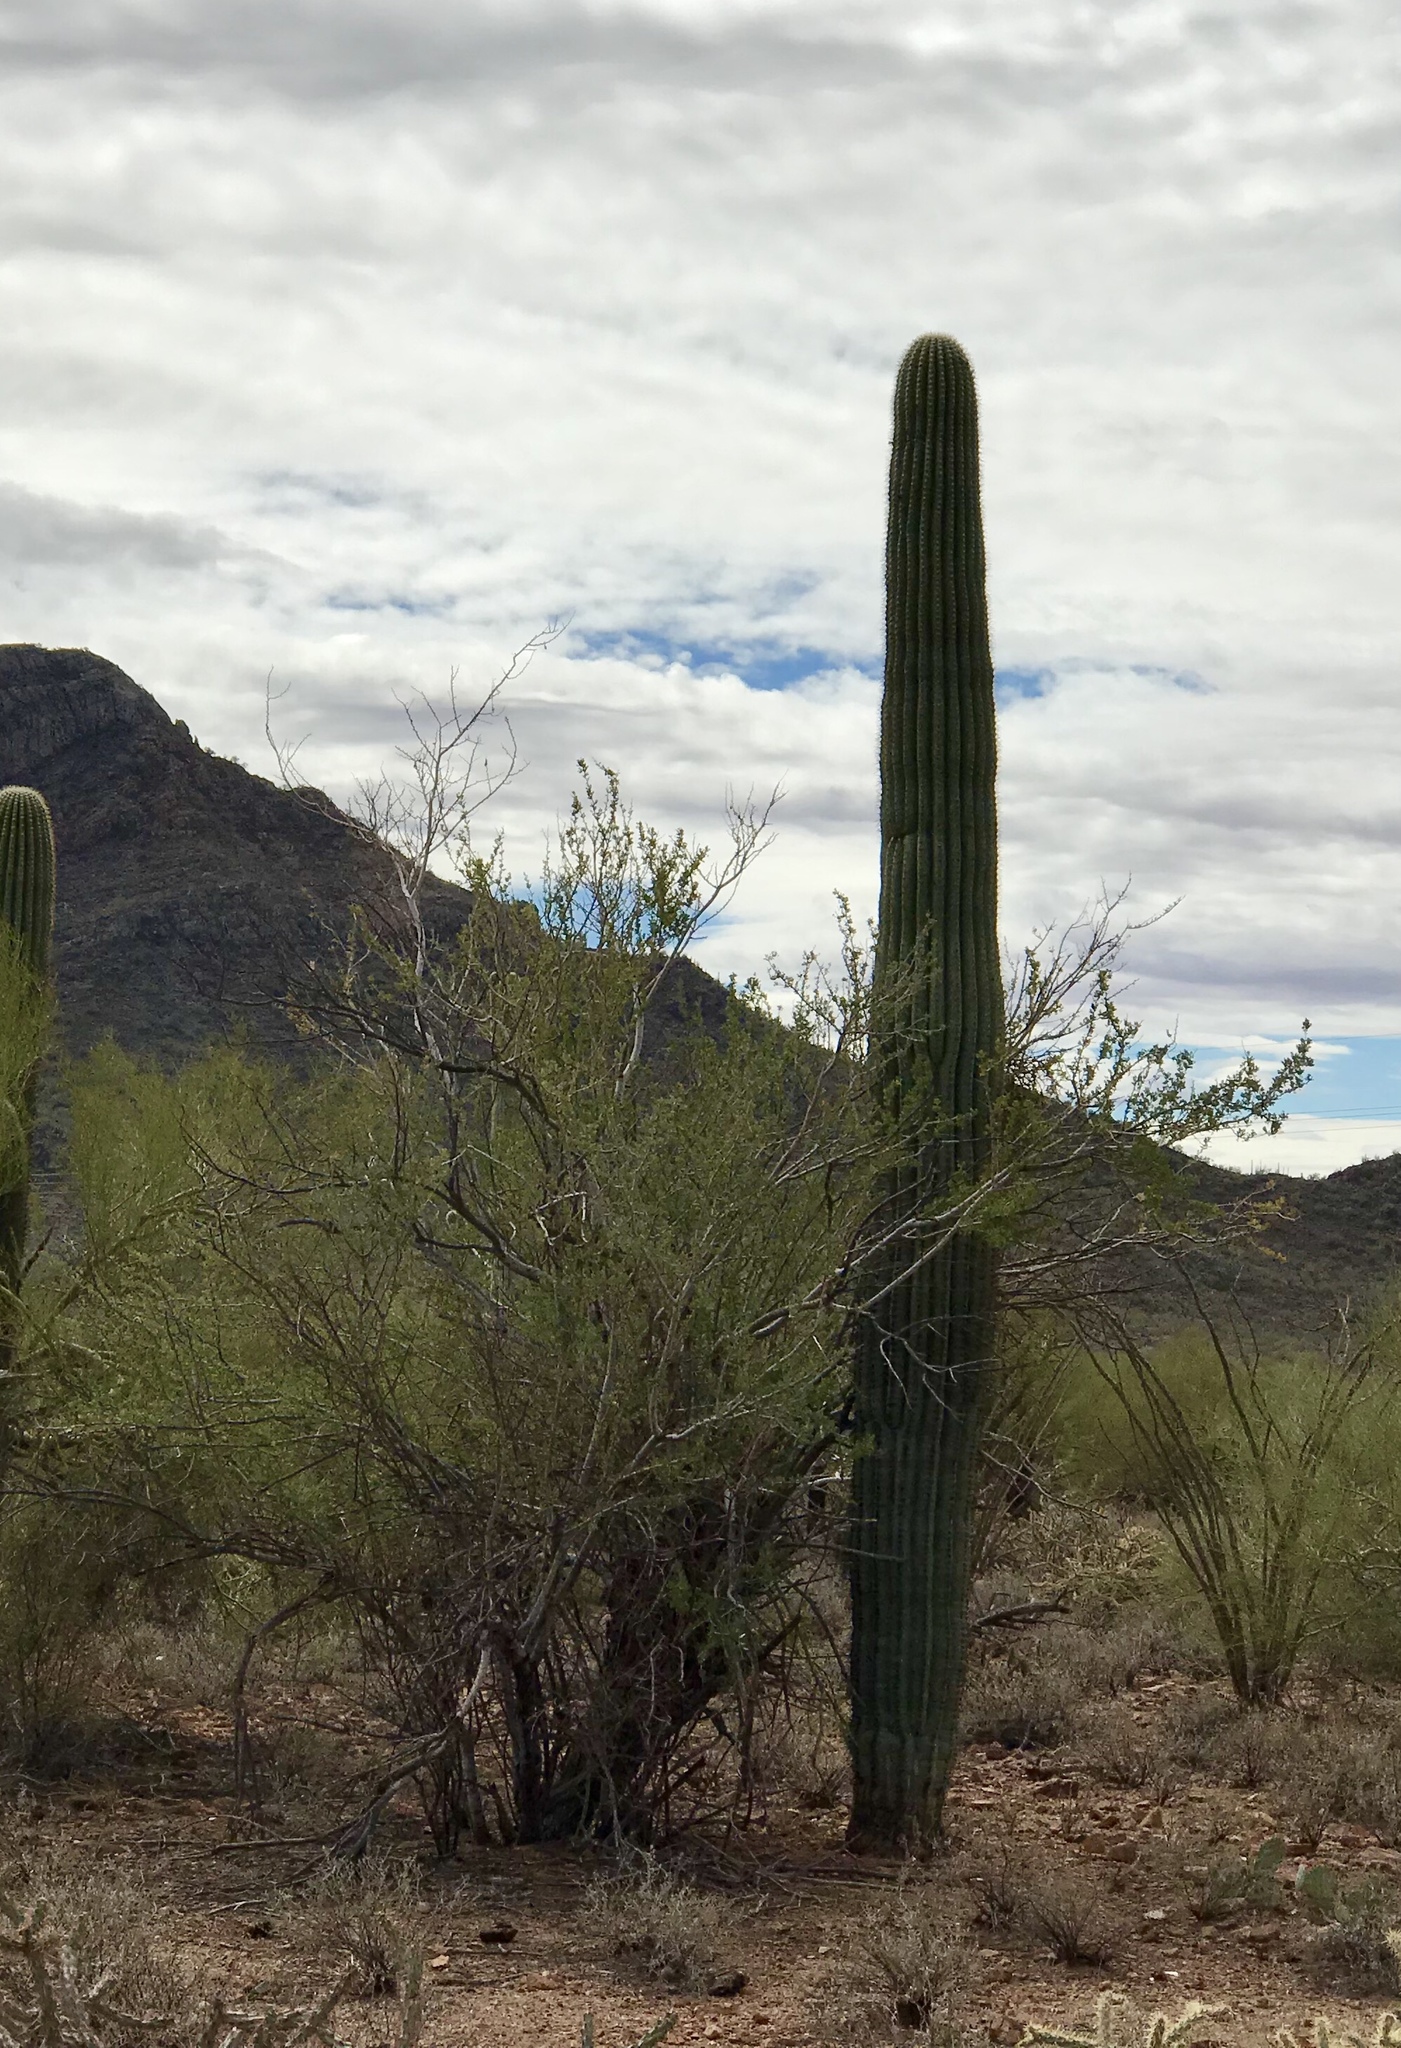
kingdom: Plantae
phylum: Tracheophyta
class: Magnoliopsida
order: Caryophyllales
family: Cactaceae
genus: Carnegiea
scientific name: Carnegiea gigantea
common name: Saguaro
